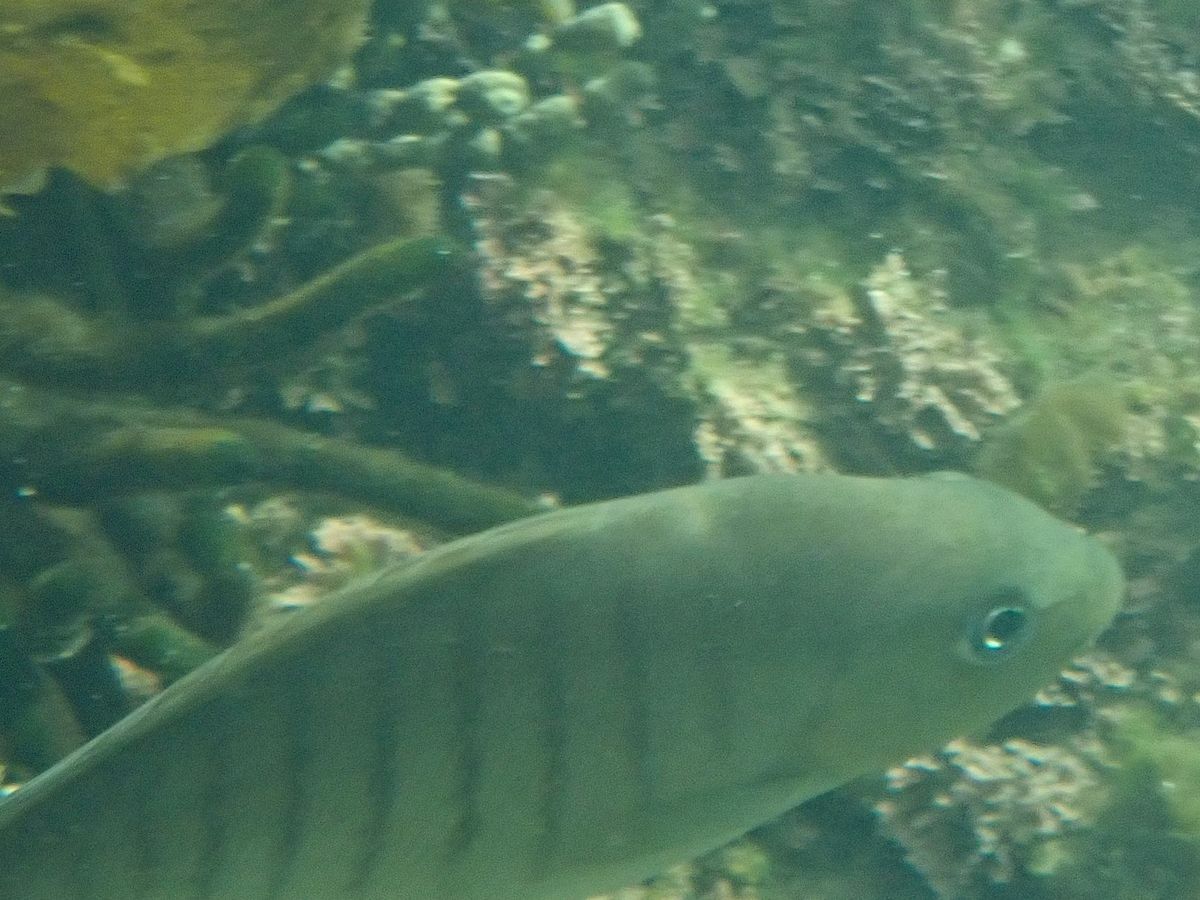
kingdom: Animalia
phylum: Chordata
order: Perciformes
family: Kyphosidae
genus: Girella
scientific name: Girella tricuspidata
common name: Parore
